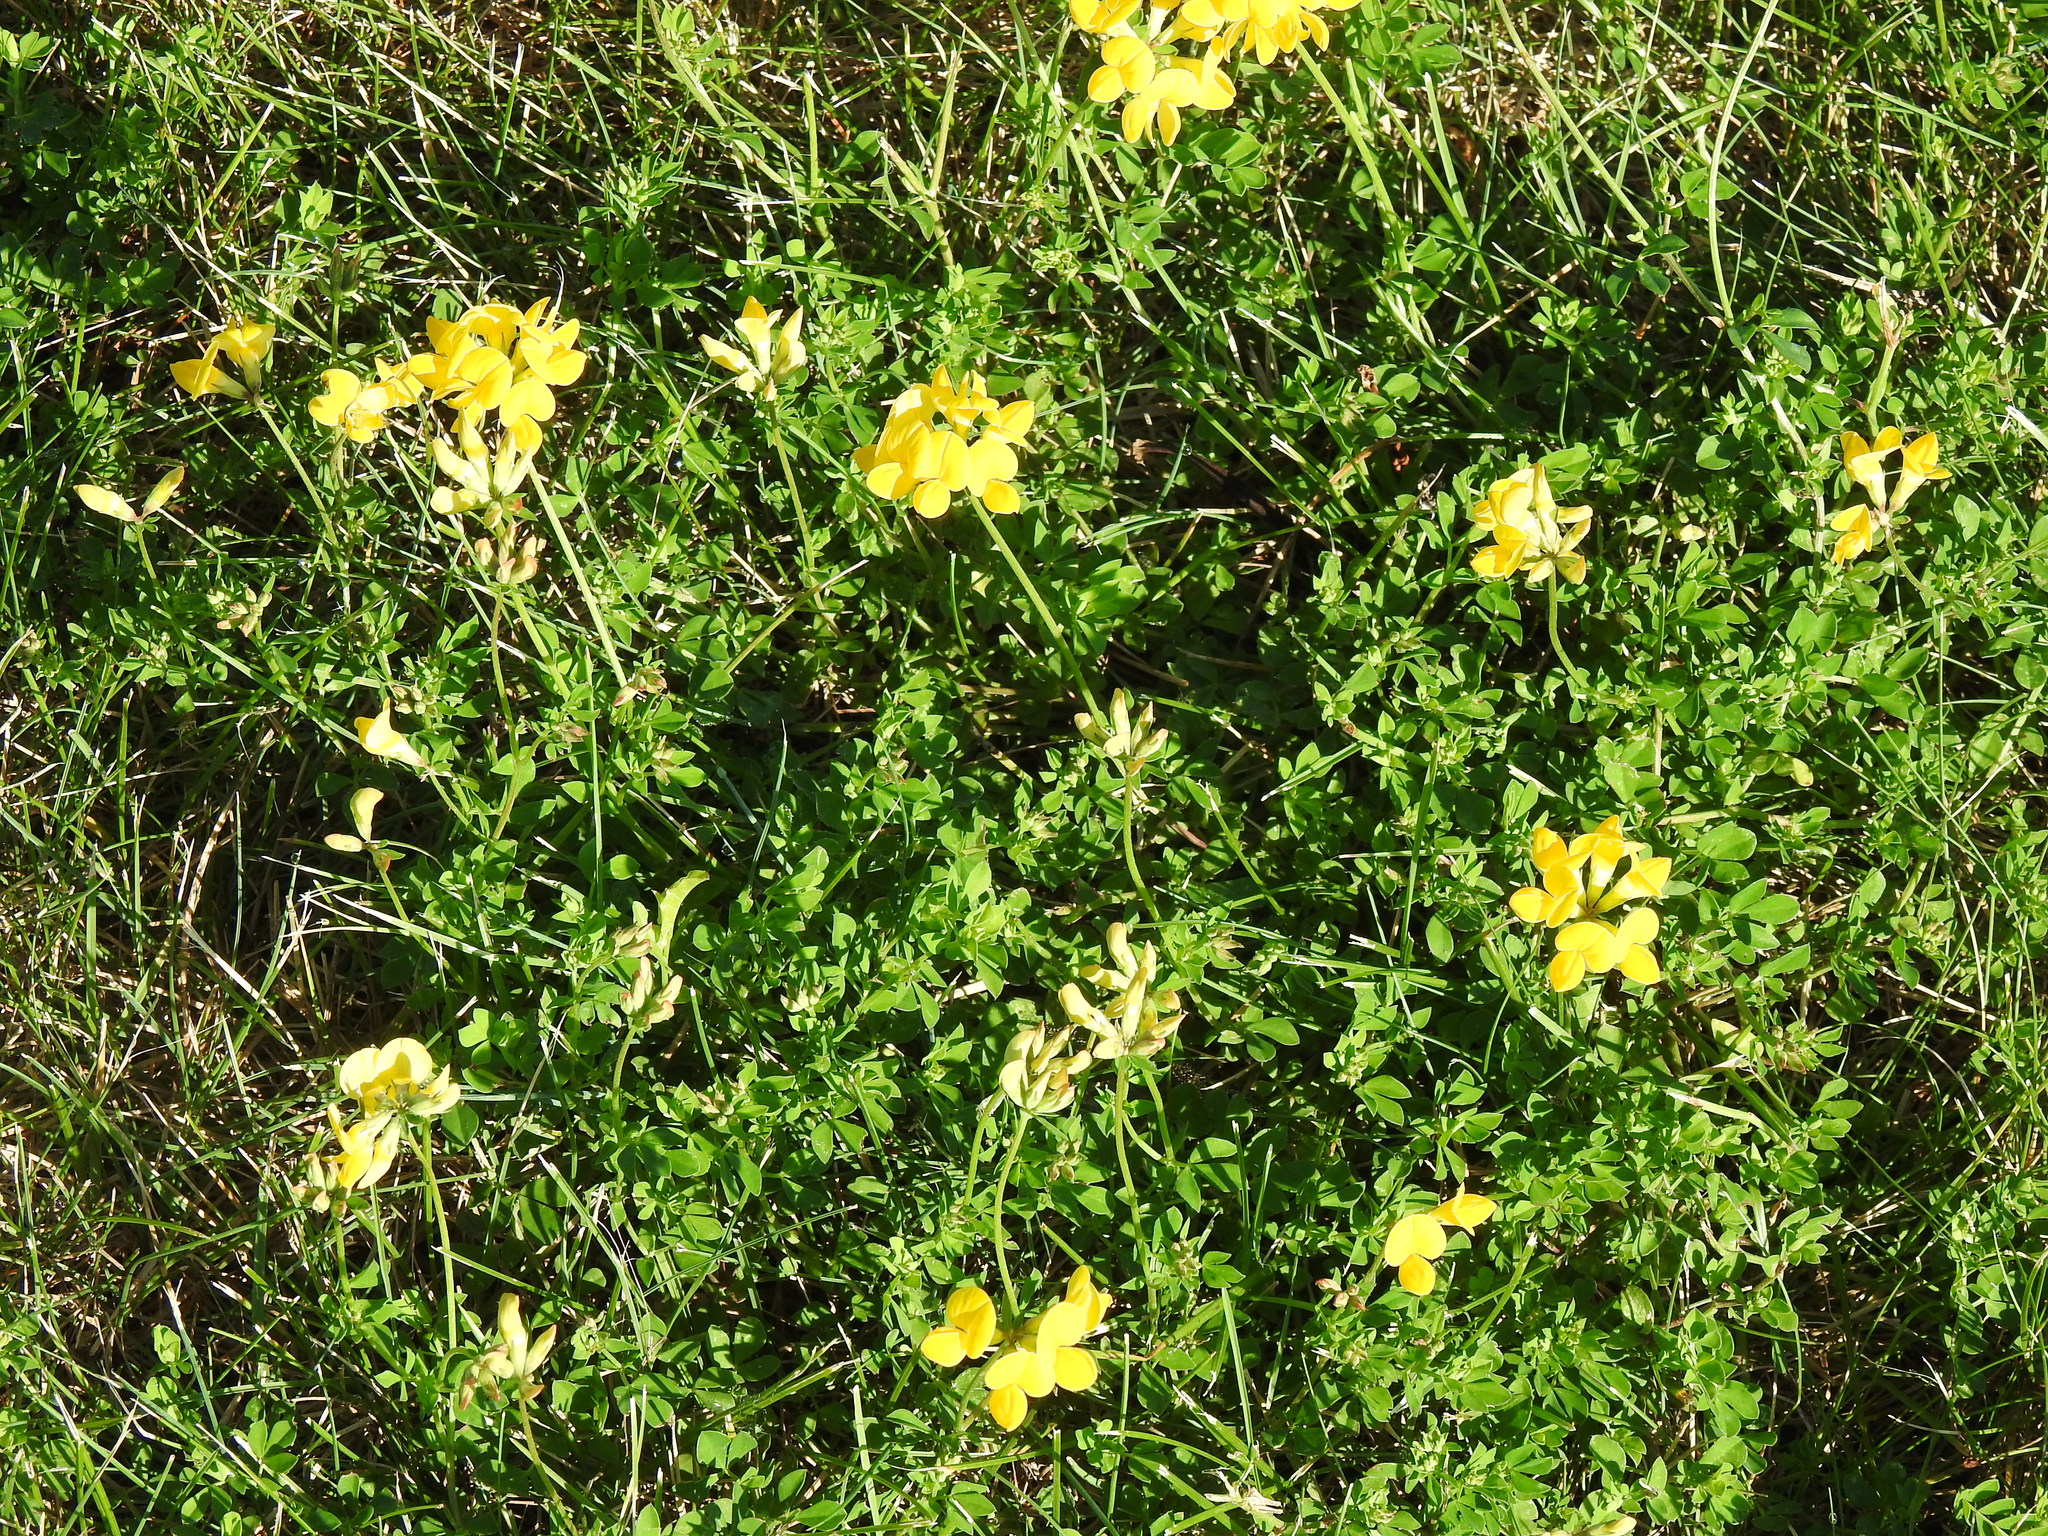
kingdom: Plantae
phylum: Tracheophyta
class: Magnoliopsida
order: Fabales
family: Fabaceae
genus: Lotus
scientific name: Lotus corniculatus
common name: Common bird's-foot-trefoil
